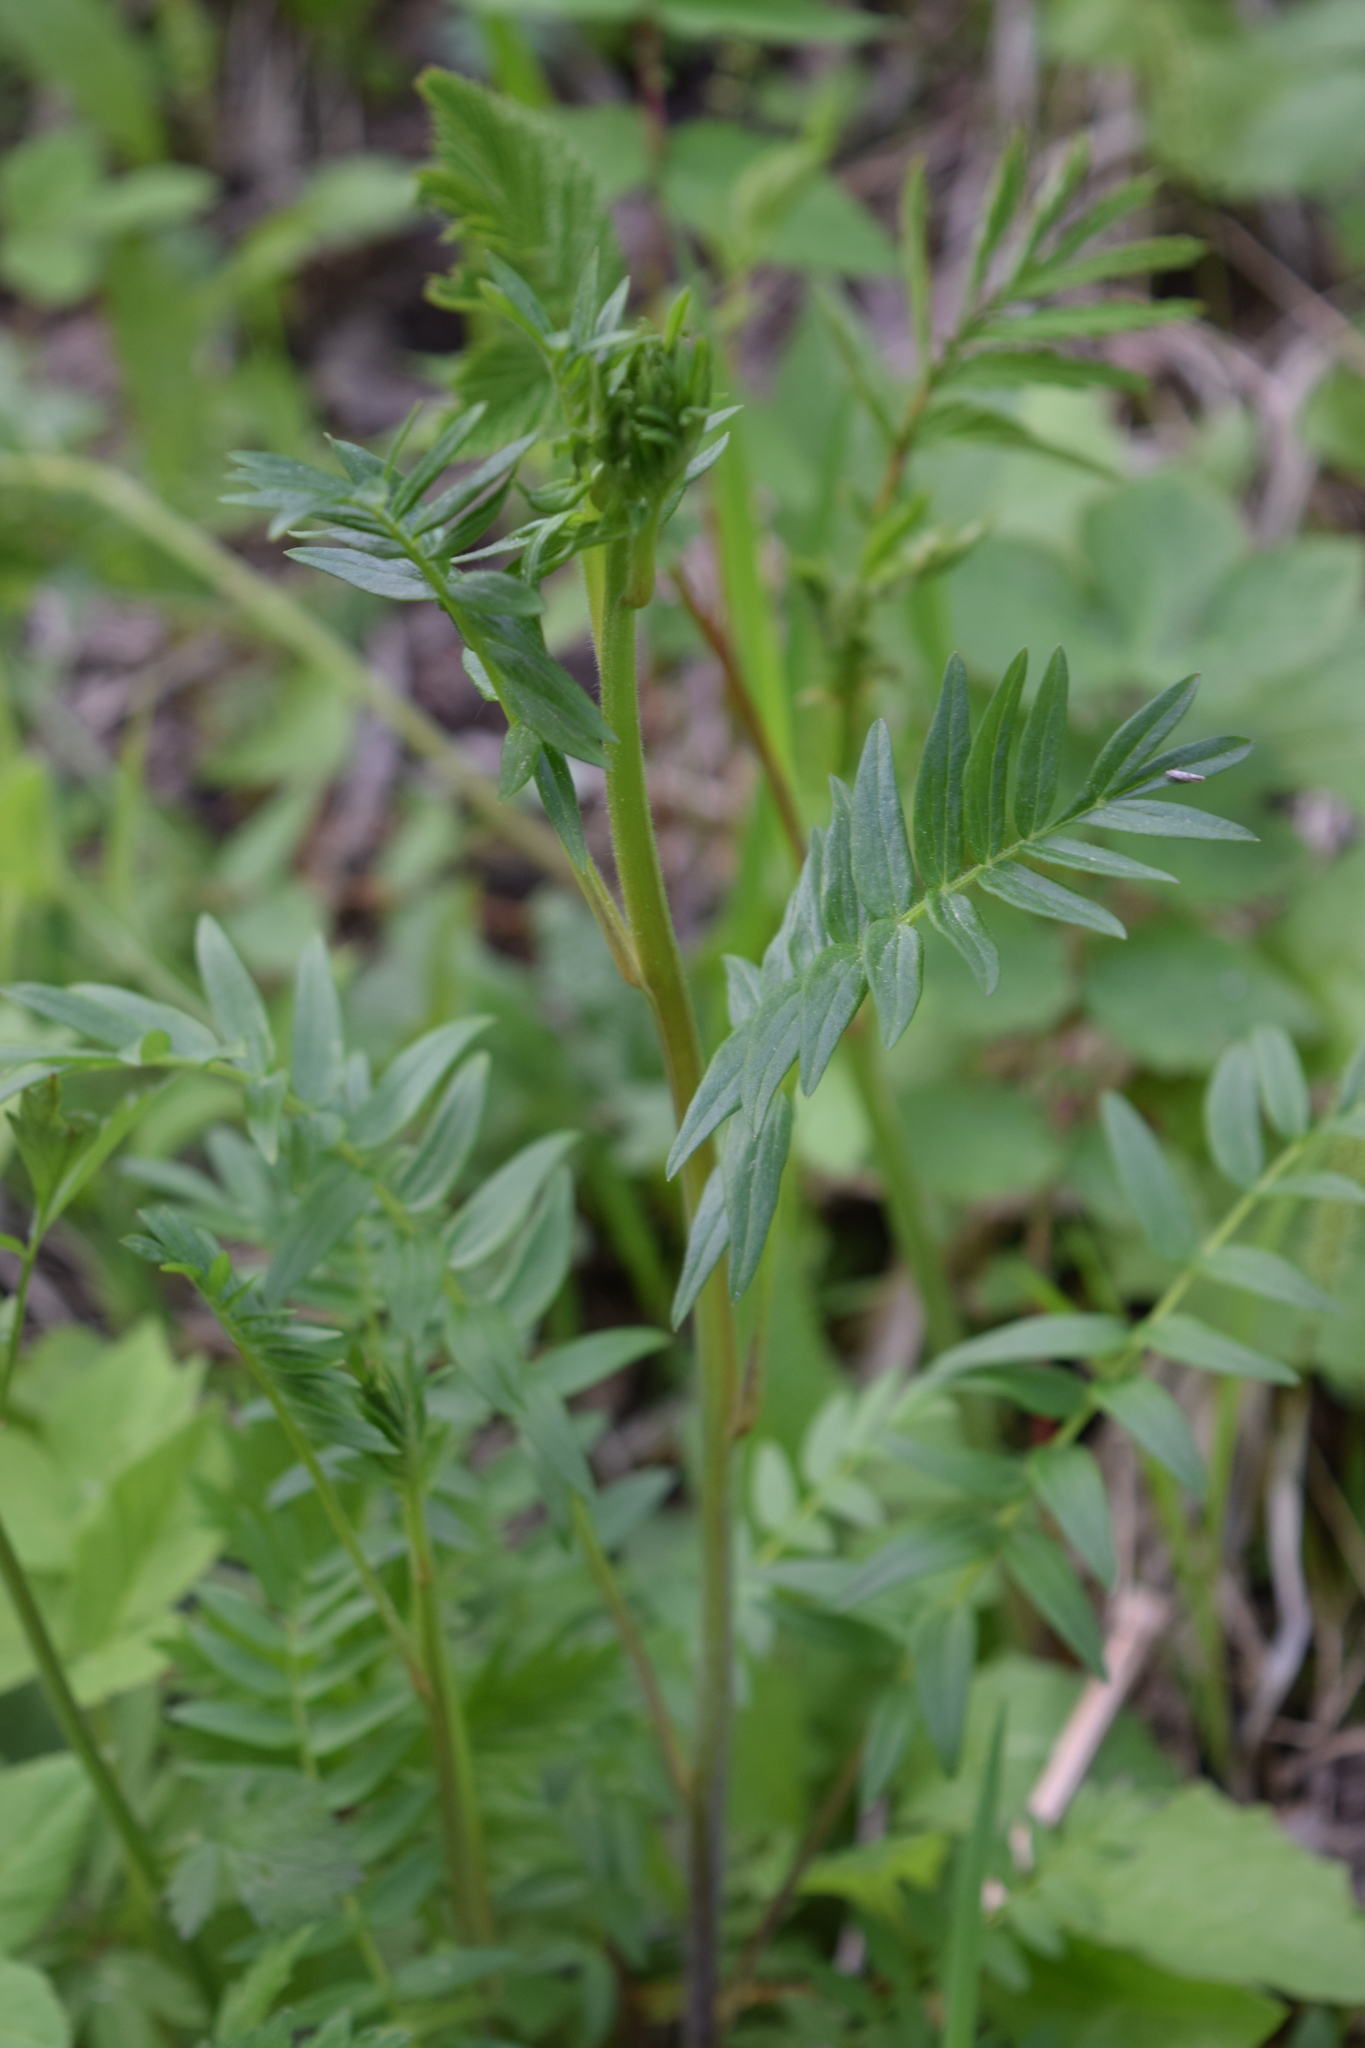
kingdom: Plantae
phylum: Tracheophyta
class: Magnoliopsida
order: Ericales
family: Polemoniaceae
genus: Polemonium
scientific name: Polemonium caeruleum
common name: Jacob's-ladder
